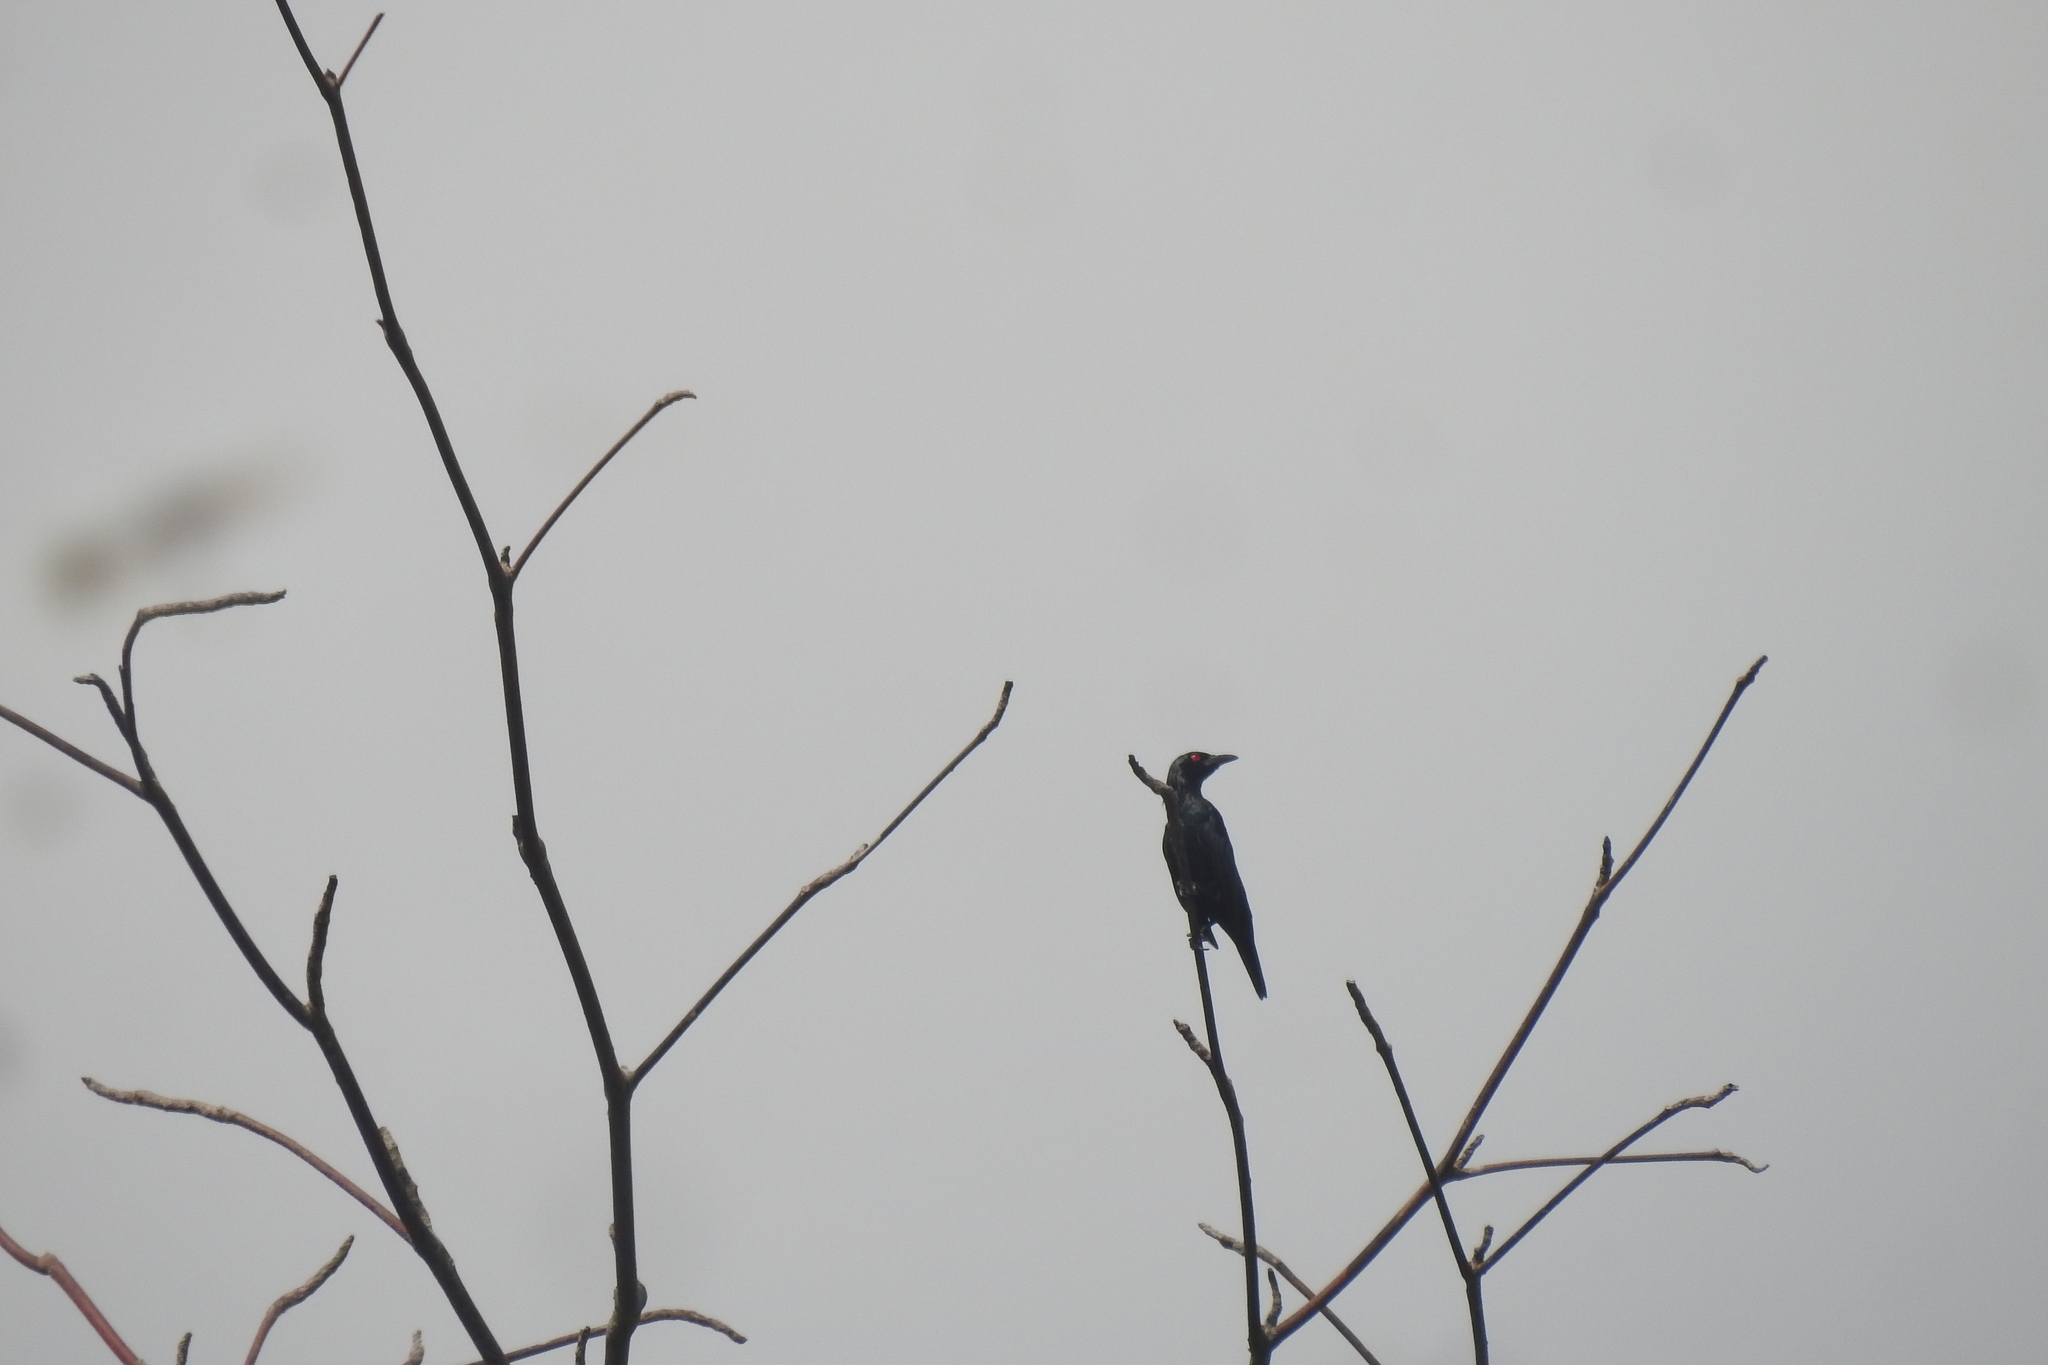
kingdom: Animalia
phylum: Chordata
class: Aves
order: Passeriformes
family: Sturnidae
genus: Aplonis
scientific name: Aplonis panayensis
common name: Asian glossy starling
